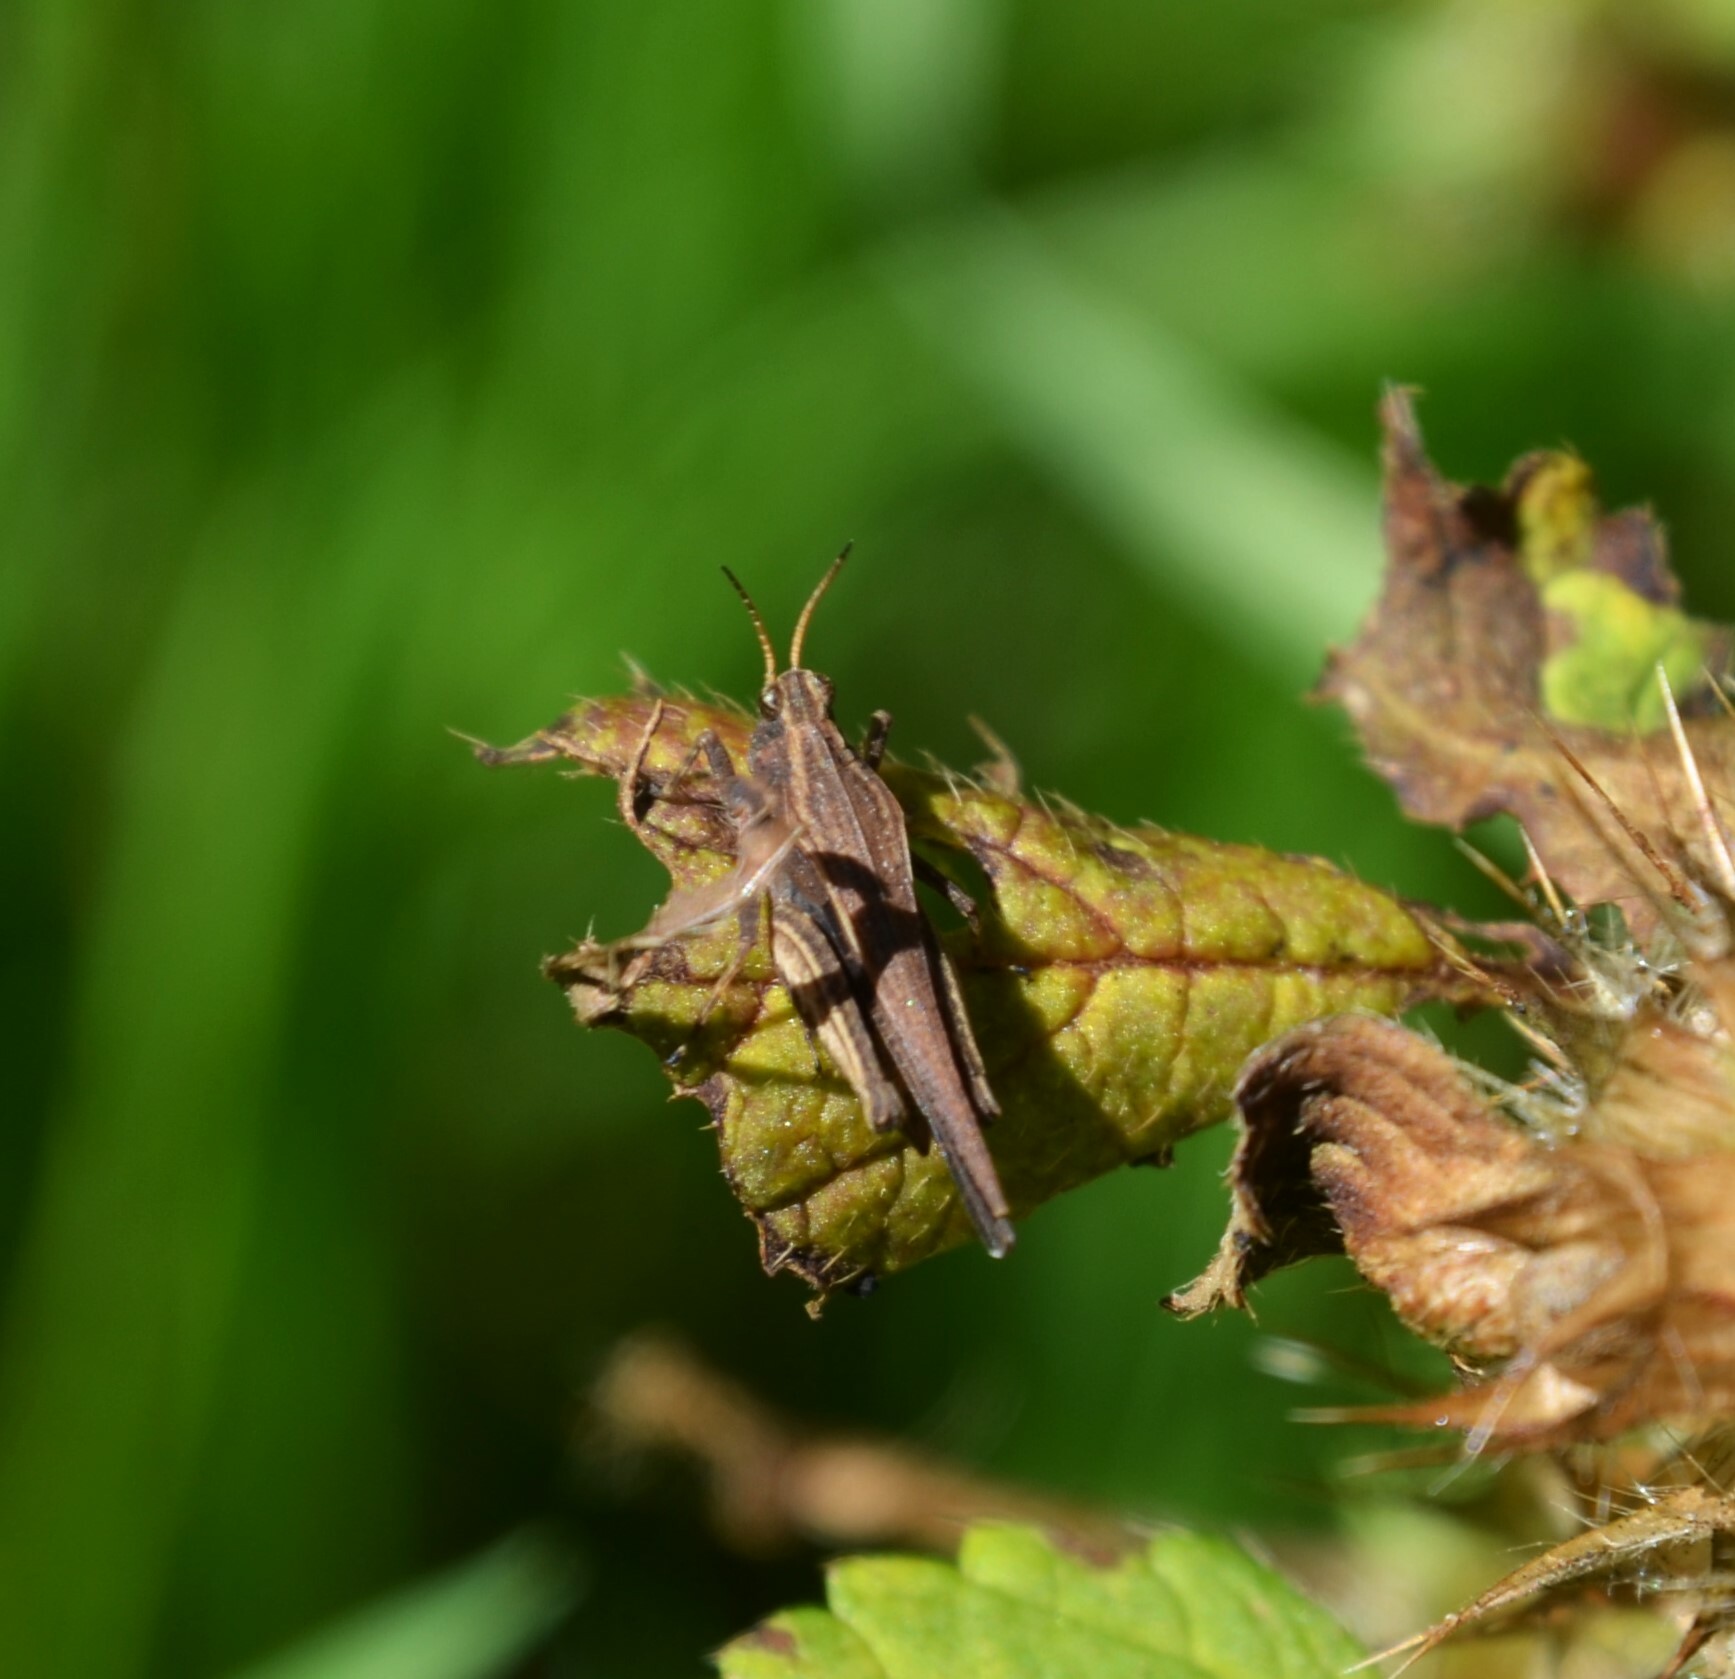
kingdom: Animalia
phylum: Arthropoda
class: Insecta
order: Orthoptera
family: Tetrigidae
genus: Tetrix
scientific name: Tetrix subulata
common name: Slender ground-hopper
